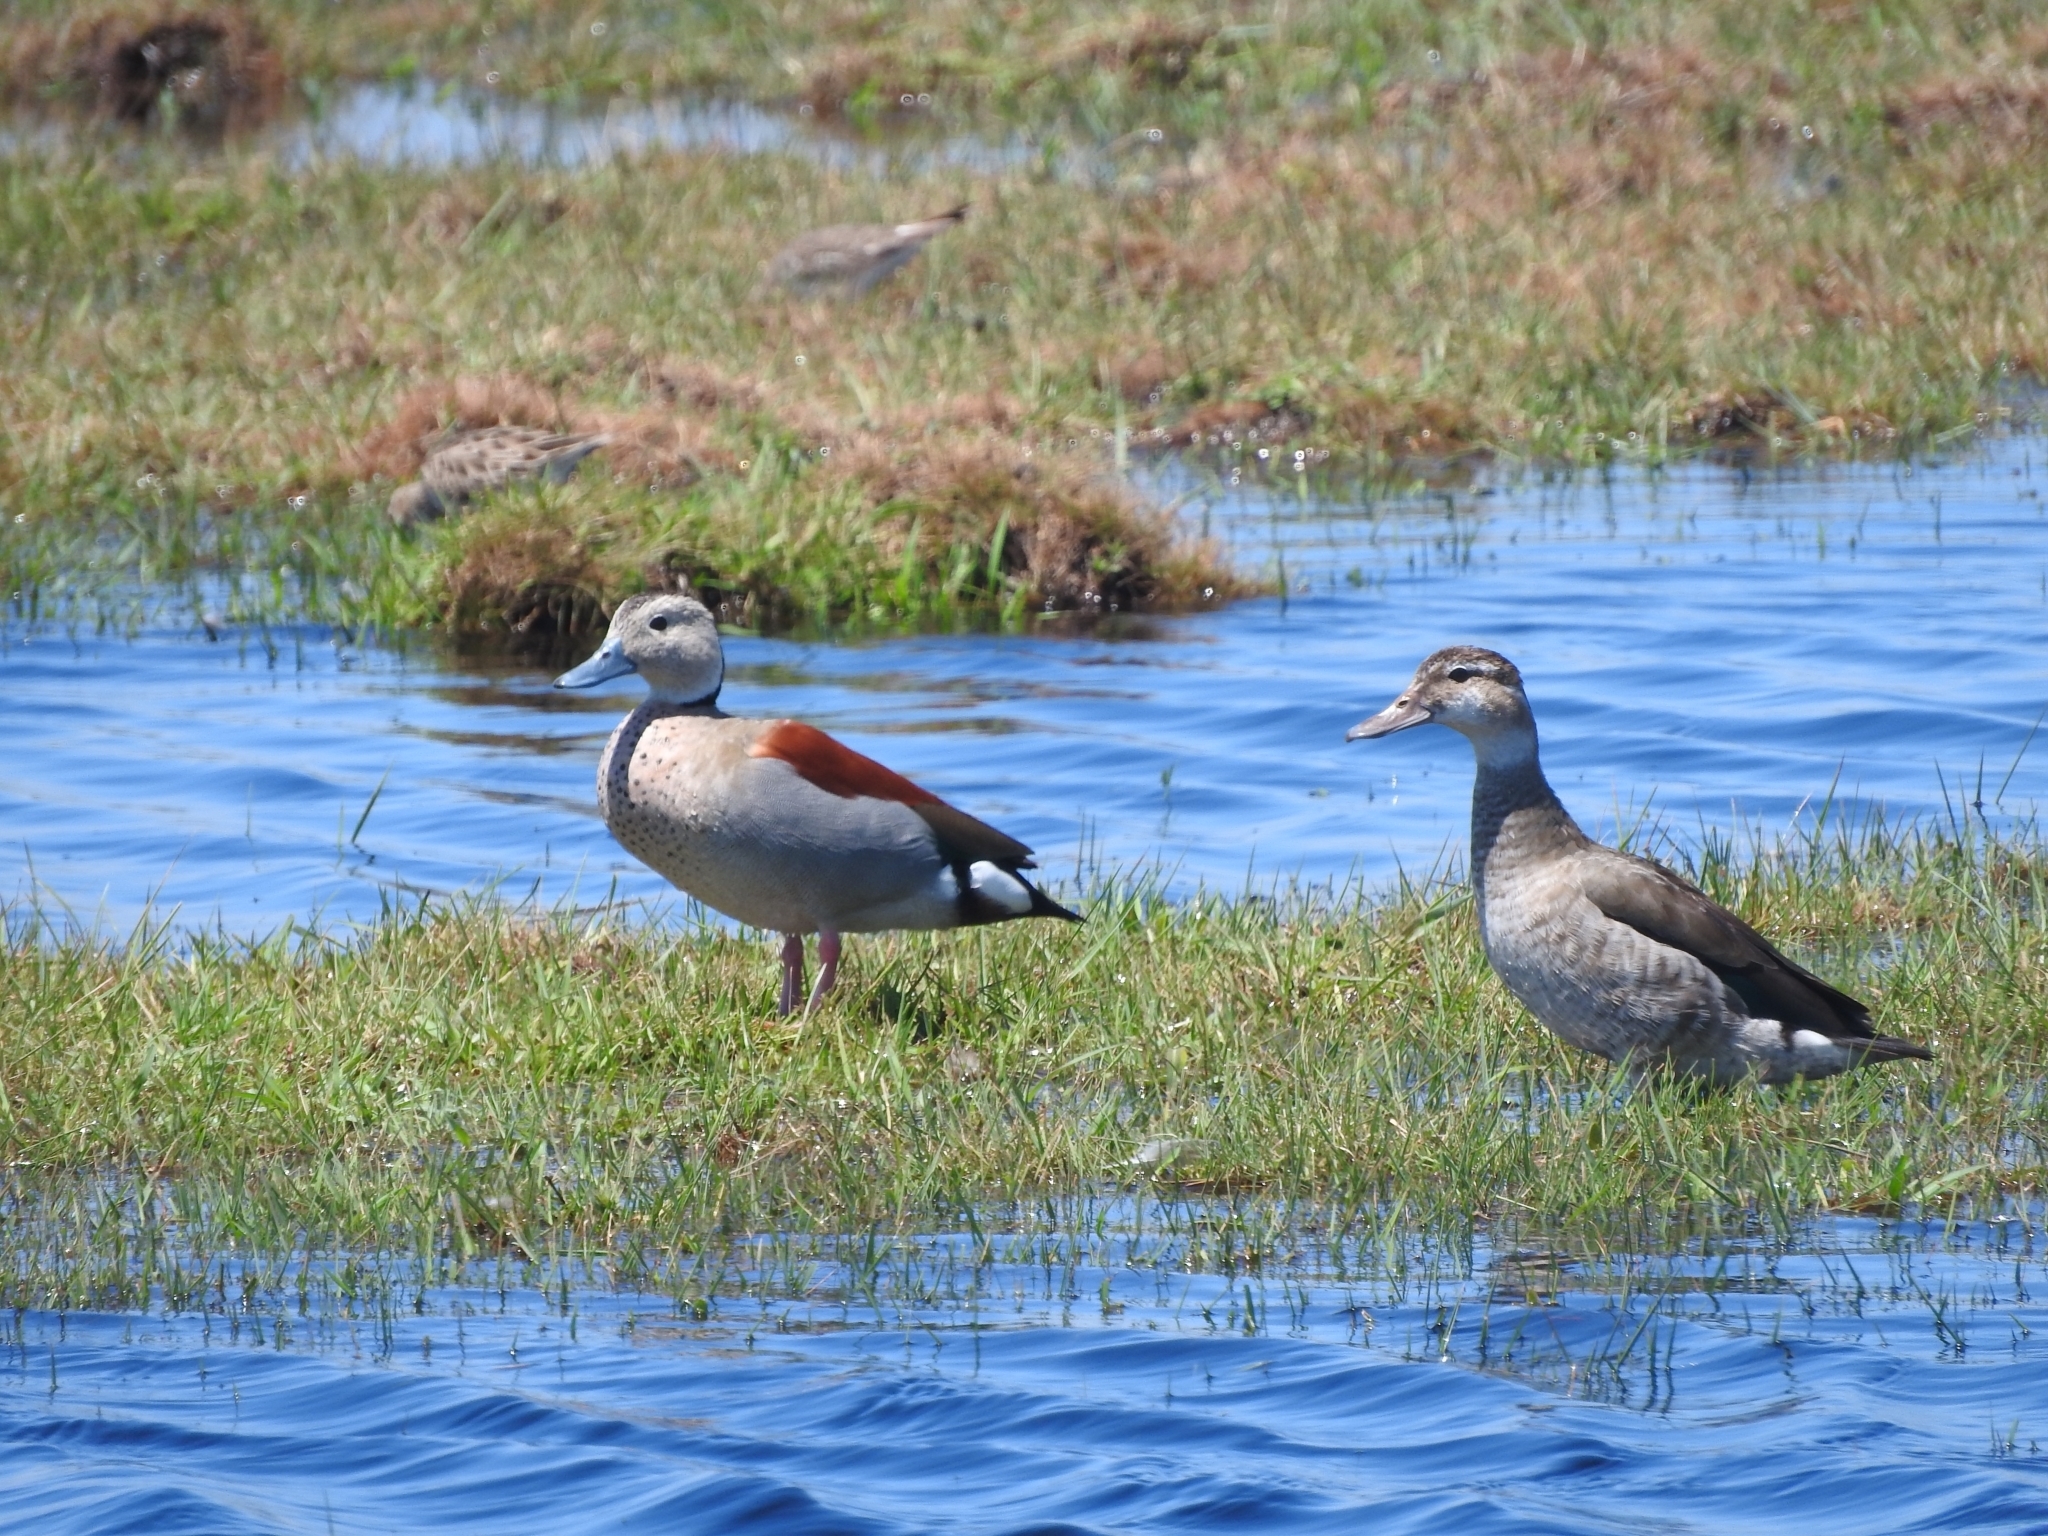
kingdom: Animalia
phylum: Chordata
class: Aves
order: Anseriformes
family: Anatidae
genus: Callonetta
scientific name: Callonetta leucophrys
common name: Ringed teal
